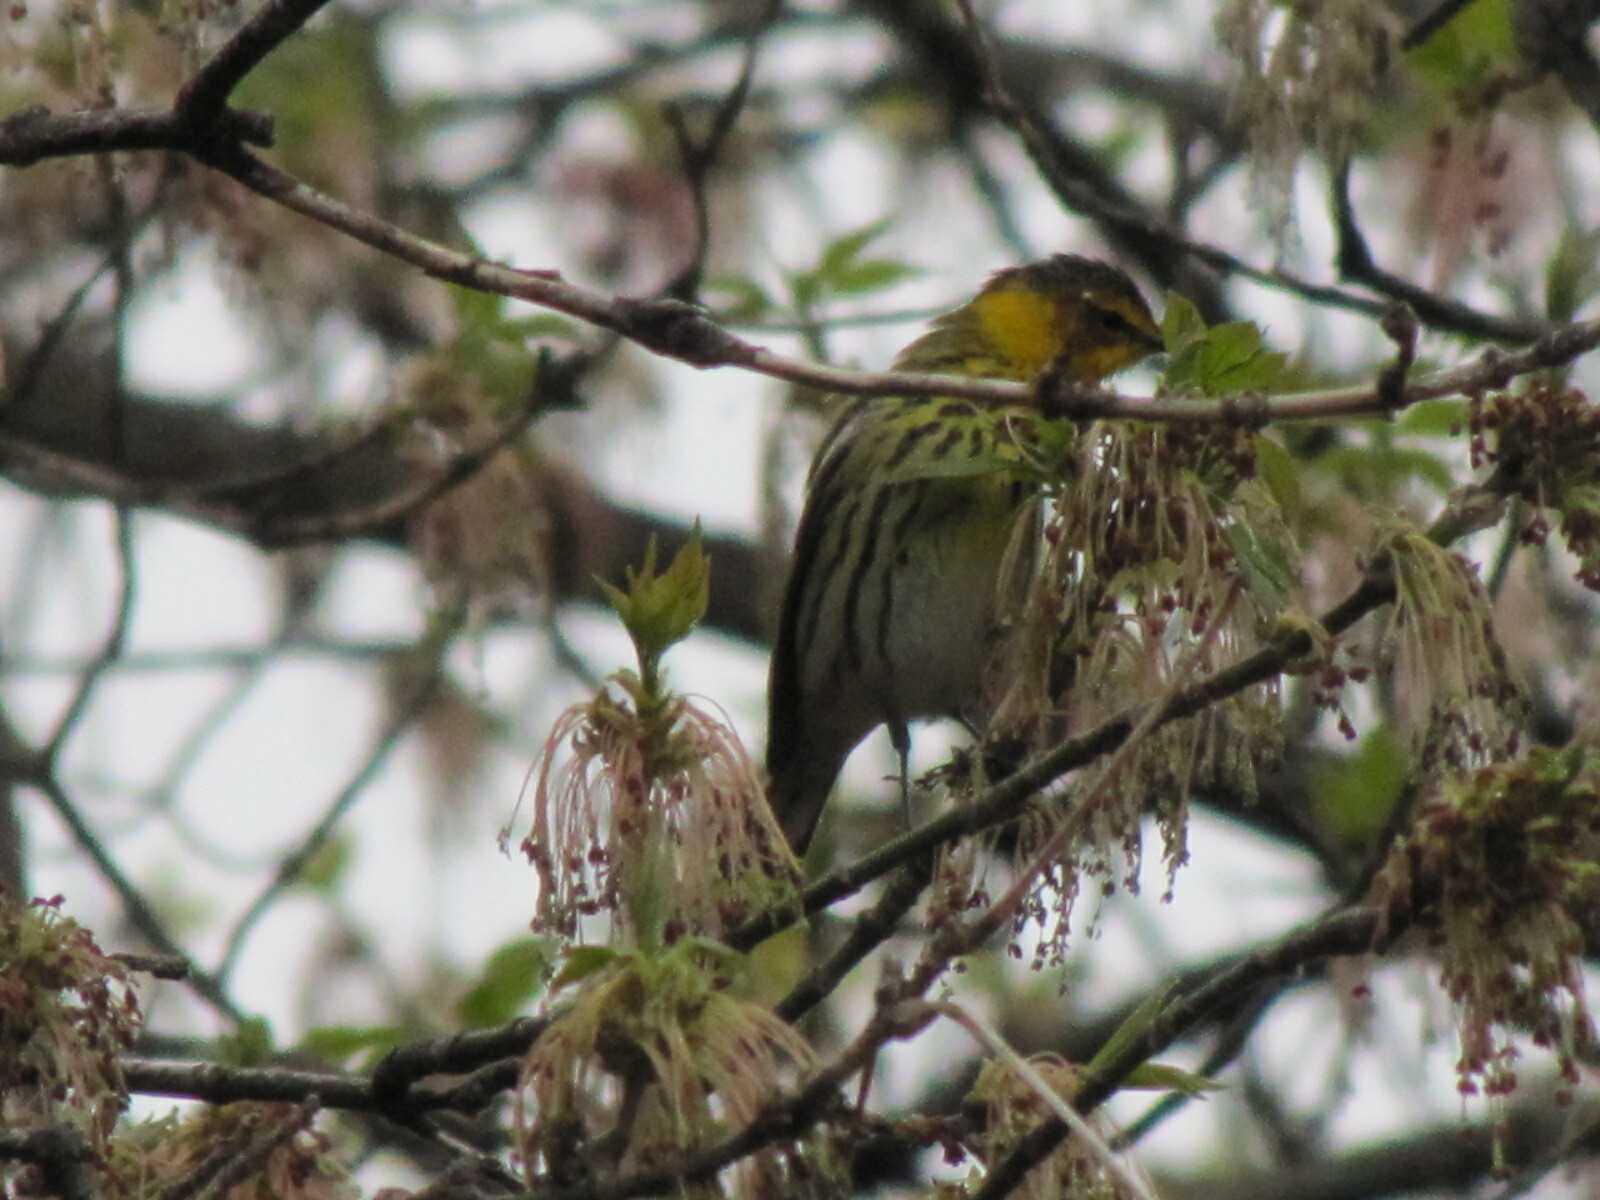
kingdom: Animalia
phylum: Chordata
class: Aves
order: Passeriformes
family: Parulidae
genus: Setophaga
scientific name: Setophaga tigrina
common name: Cape may warbler
